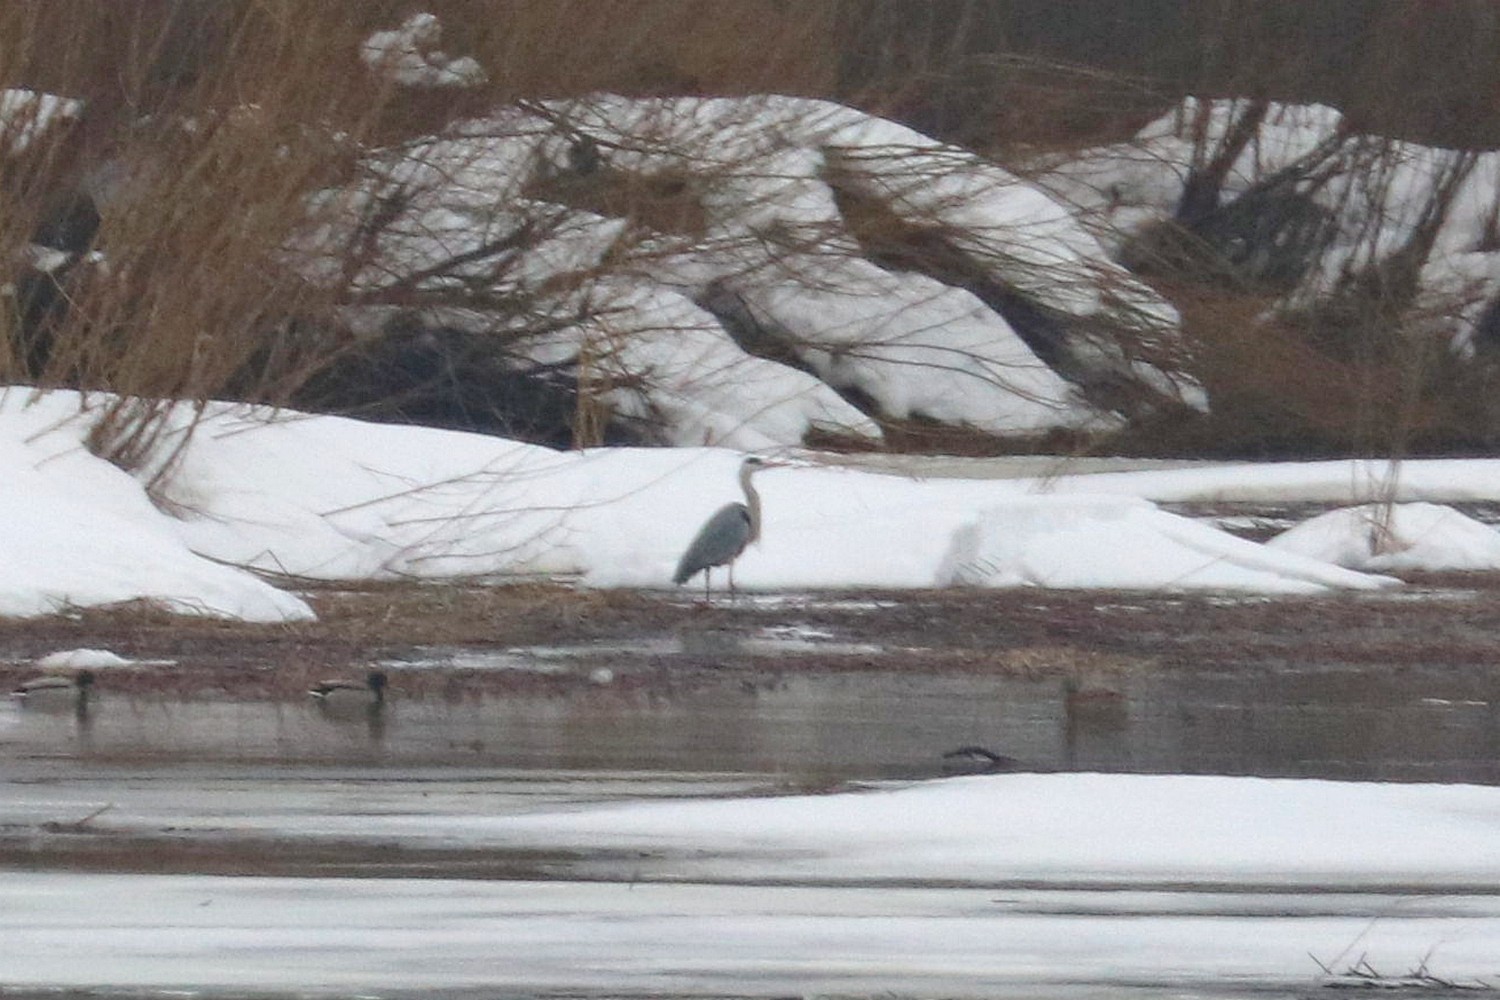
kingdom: Animalia
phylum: Chordata
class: Aves
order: Pelecaniformes
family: Ardeidae
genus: Ardea
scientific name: Ardea cinerea
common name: Grey heron
